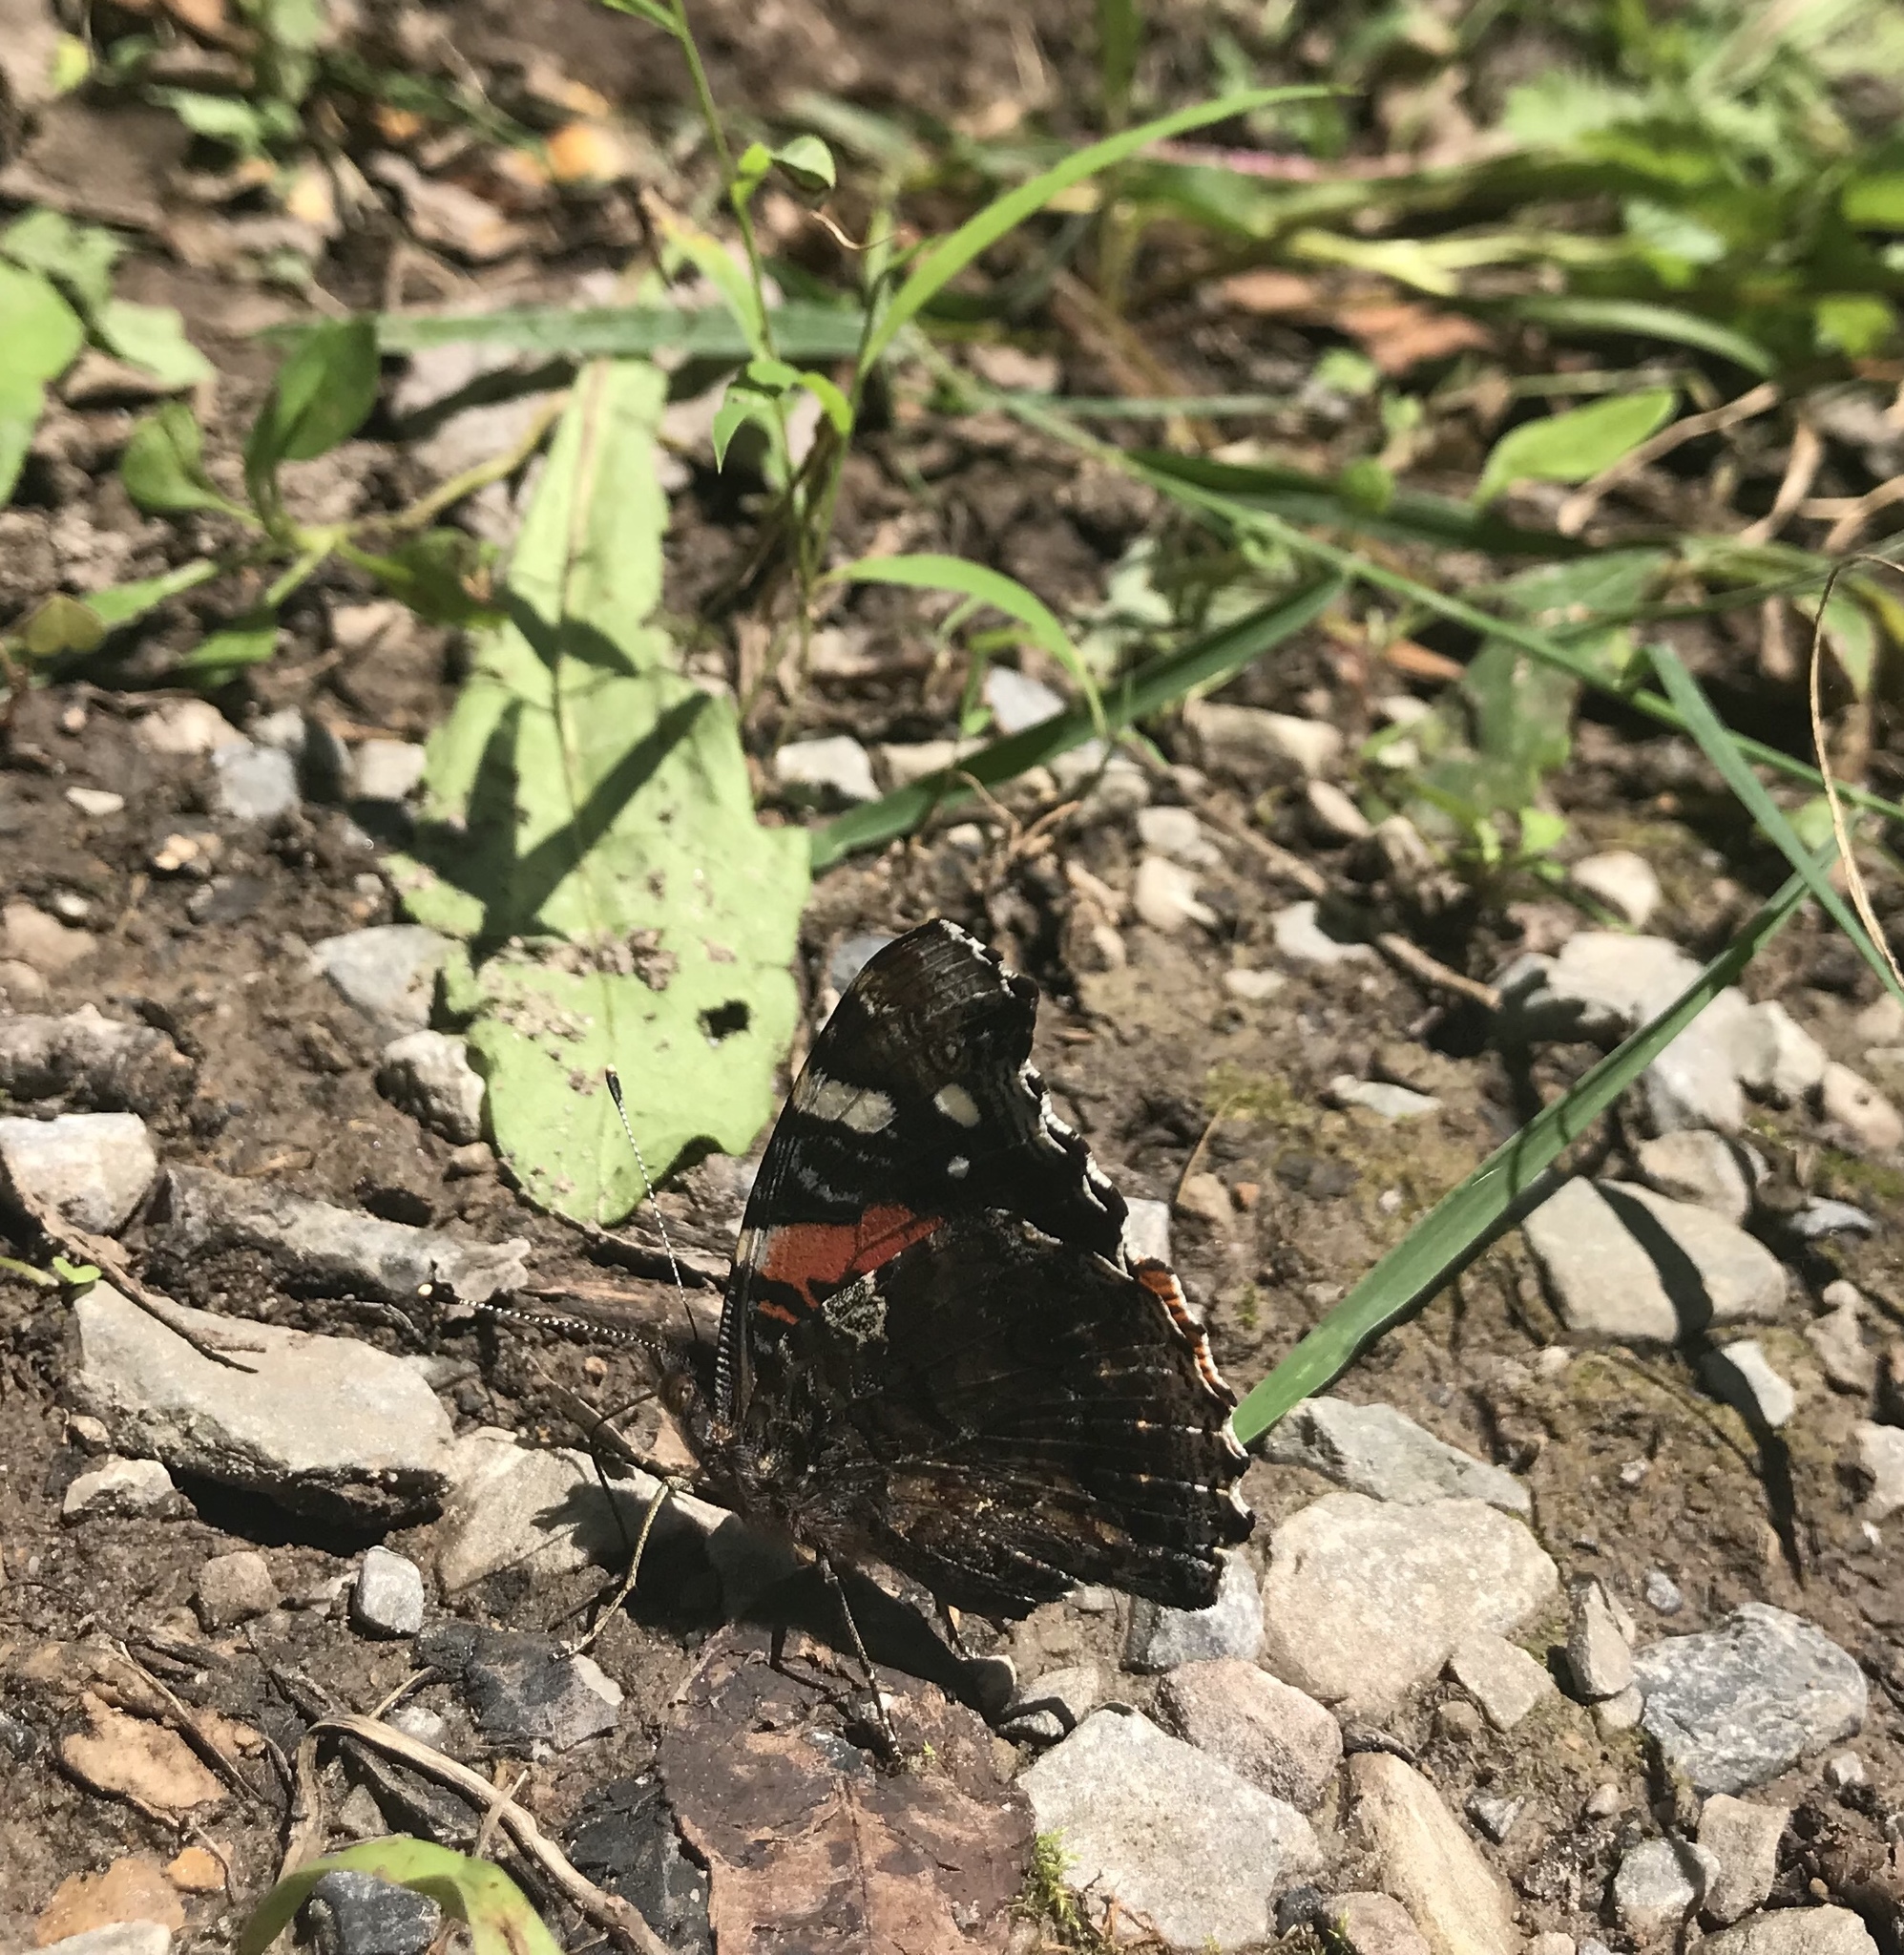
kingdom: Animalia
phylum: Arthropoda
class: Insecta
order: Lepidoptera
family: Nymphalidae
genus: Vanessa
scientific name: Vanessa atalanta
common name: Red admiral
